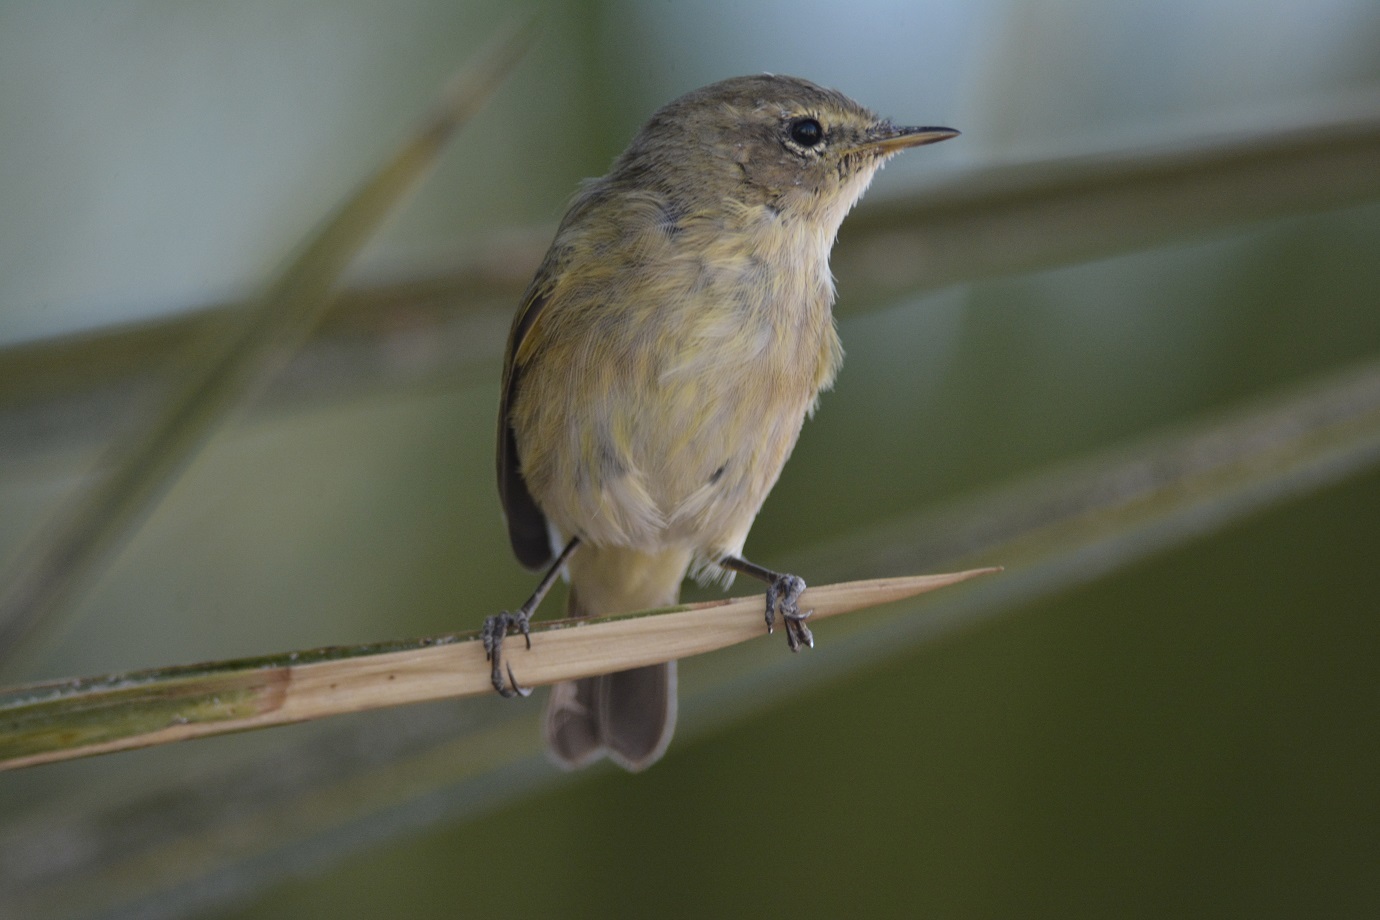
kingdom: Animalia
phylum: Chordata
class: Aves
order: Passeriformes
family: Phylloscopidae
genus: Phylloscopus
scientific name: Phylloscopus collybita
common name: Common chiffchaff
